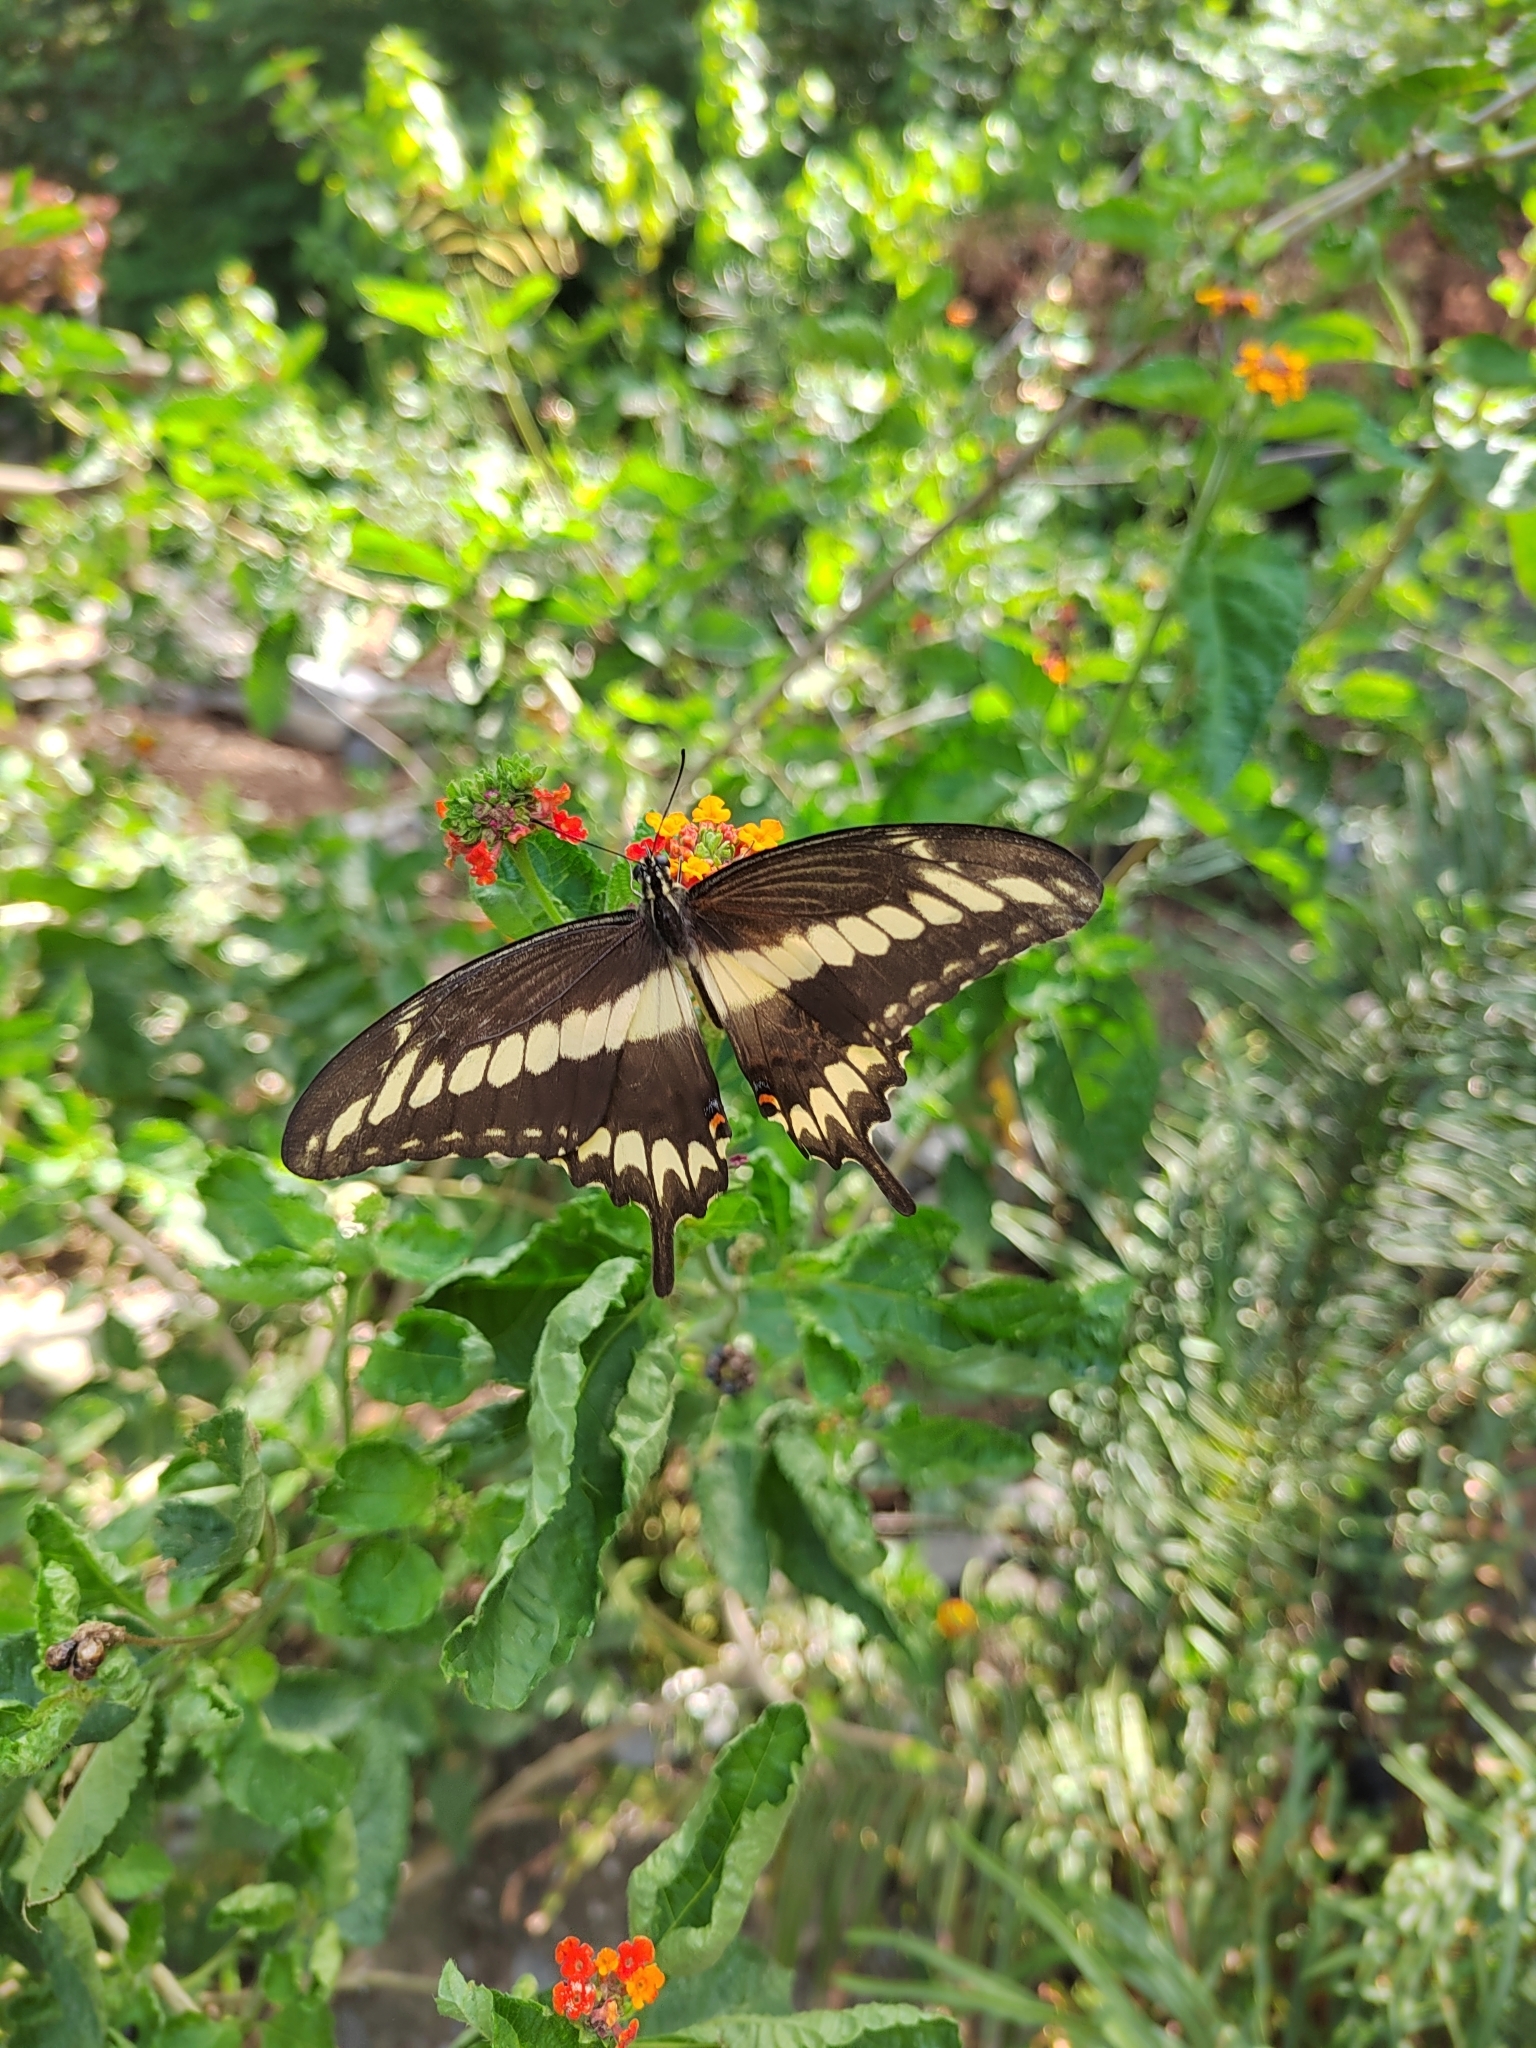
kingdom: Animalia
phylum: Arthropoda
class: Insecta
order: Lepidoptera
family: Papilionidae
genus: Papilio
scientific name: Papilio ornythion
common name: Ornythion swallowtail
